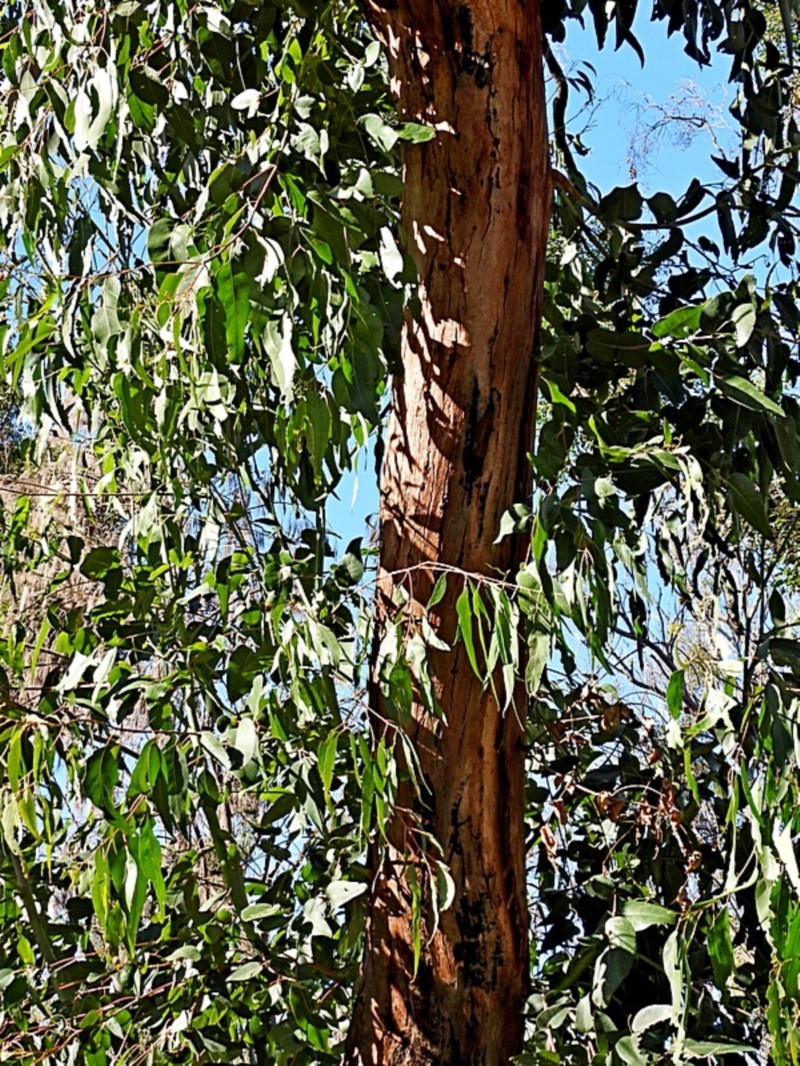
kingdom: Plantae
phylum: Tracheophyta
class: Magnoliopsida
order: Myrtales
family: Myrtaceae
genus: Eucalyptus
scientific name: Eucalyptus cypellocarpa
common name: Mountain grey gum
